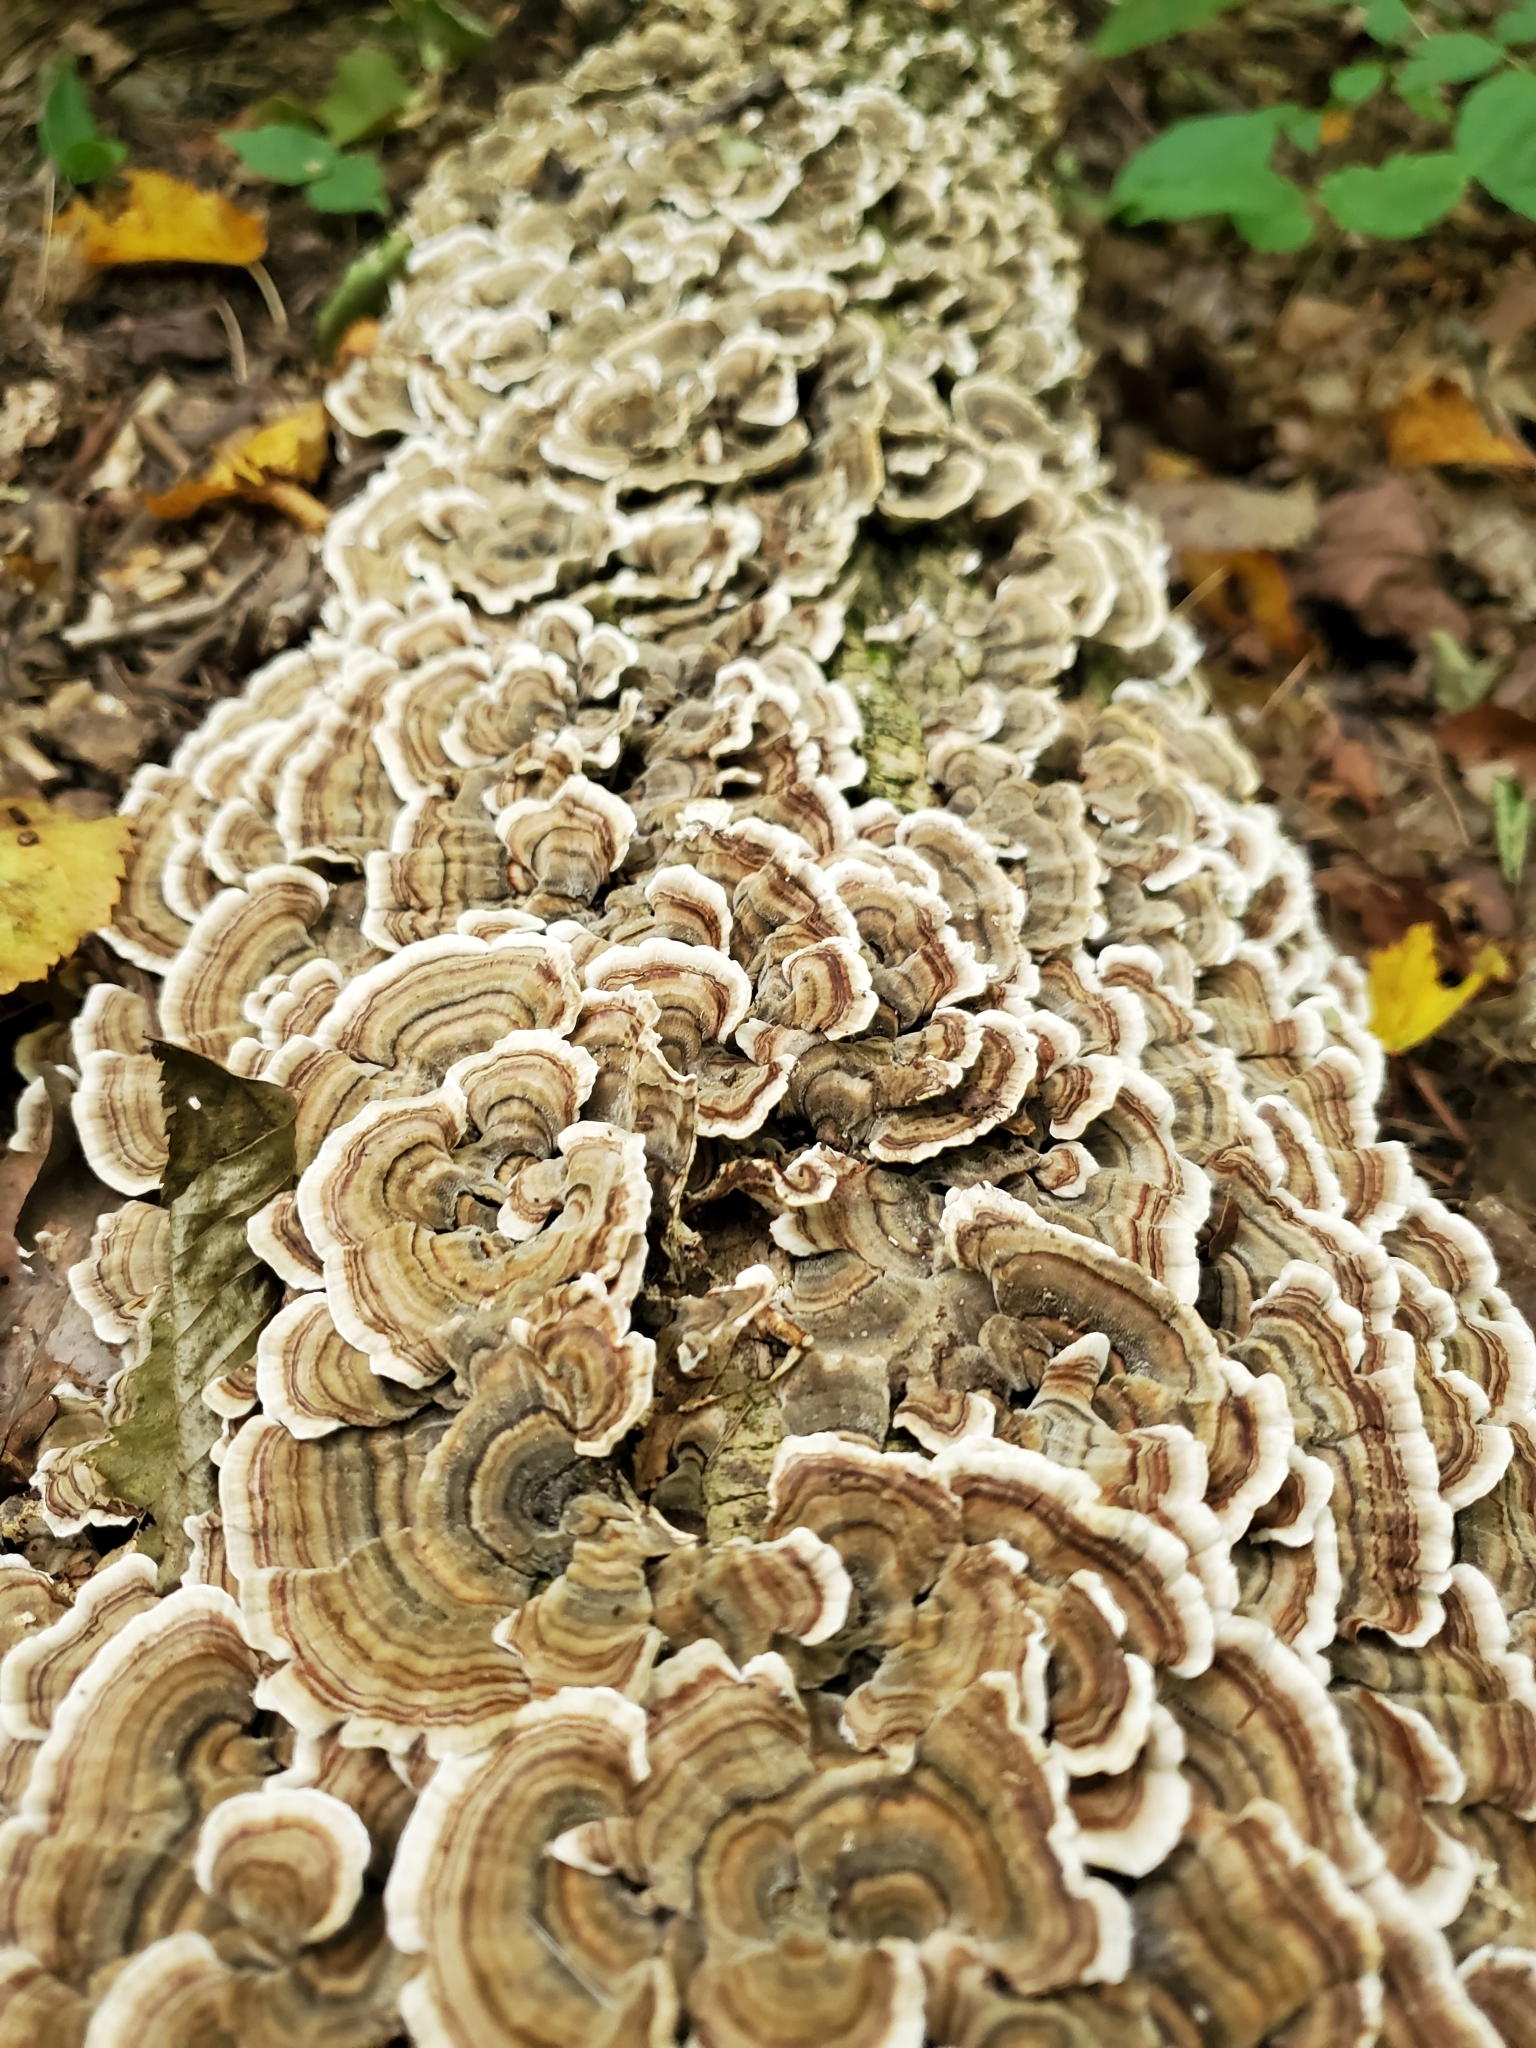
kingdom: Fungi
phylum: Basidiomycota
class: Agaricomycetes
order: Polyporales
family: Polyporaceae
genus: Trametes
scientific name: Trametes versicolor
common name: Turkeytail
